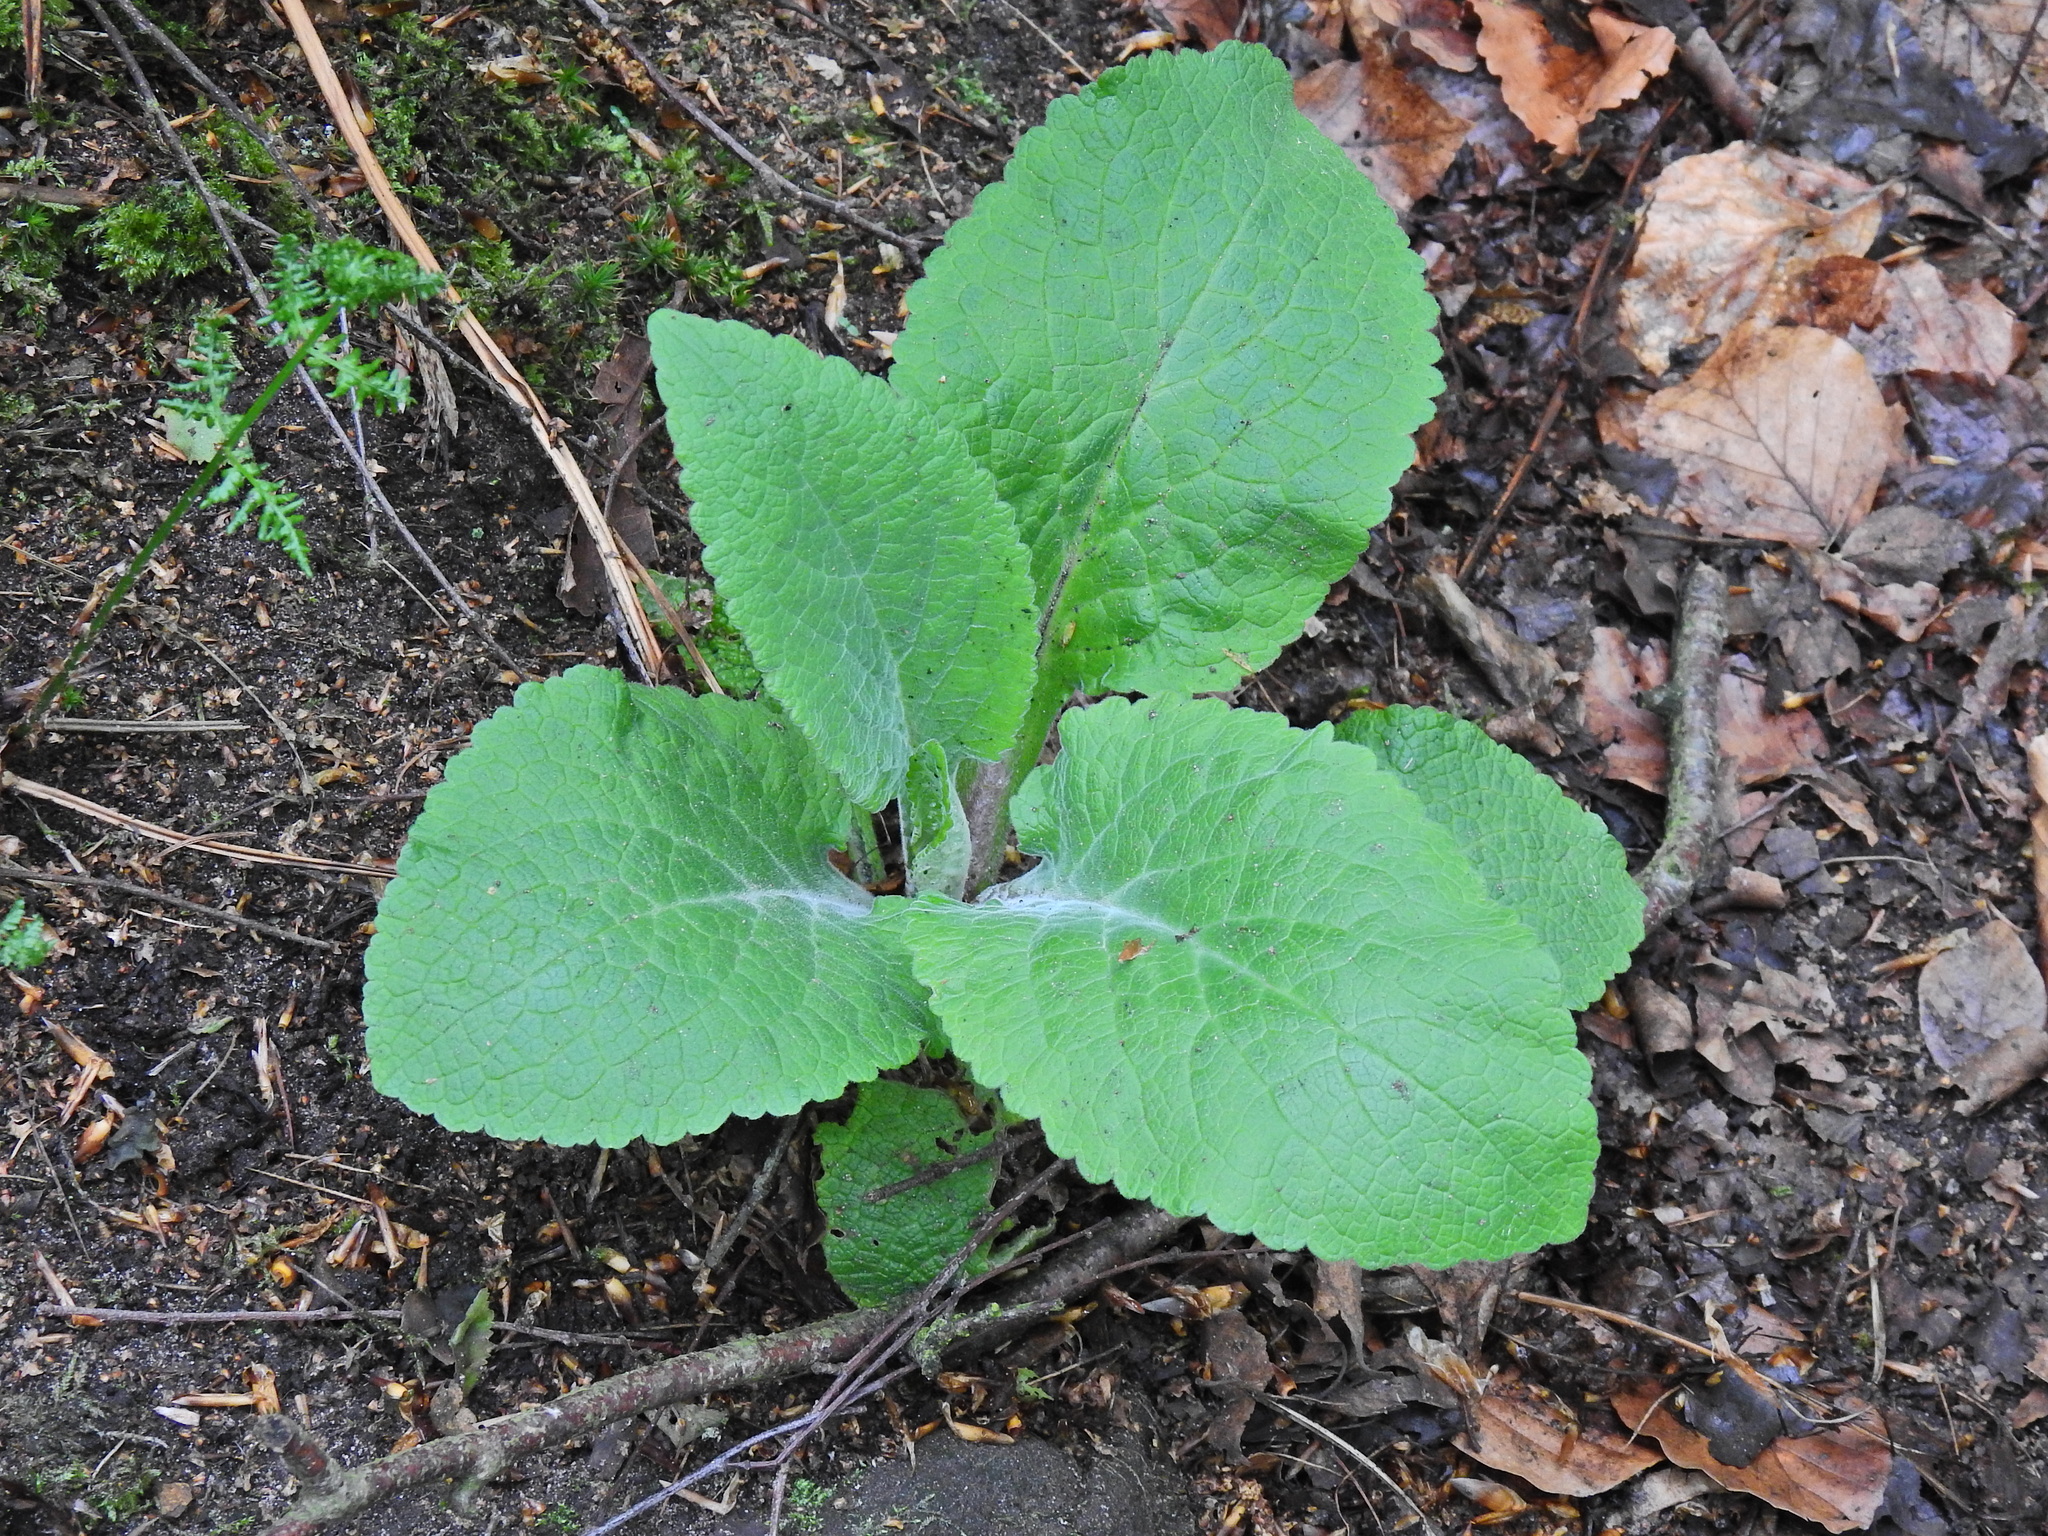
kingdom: Plantae
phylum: Tracheophyta
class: Magnoliopsida
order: Lamiales
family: Plantaginaceae
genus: Digitalis
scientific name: Digitalis purpurea
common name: Foxglove
